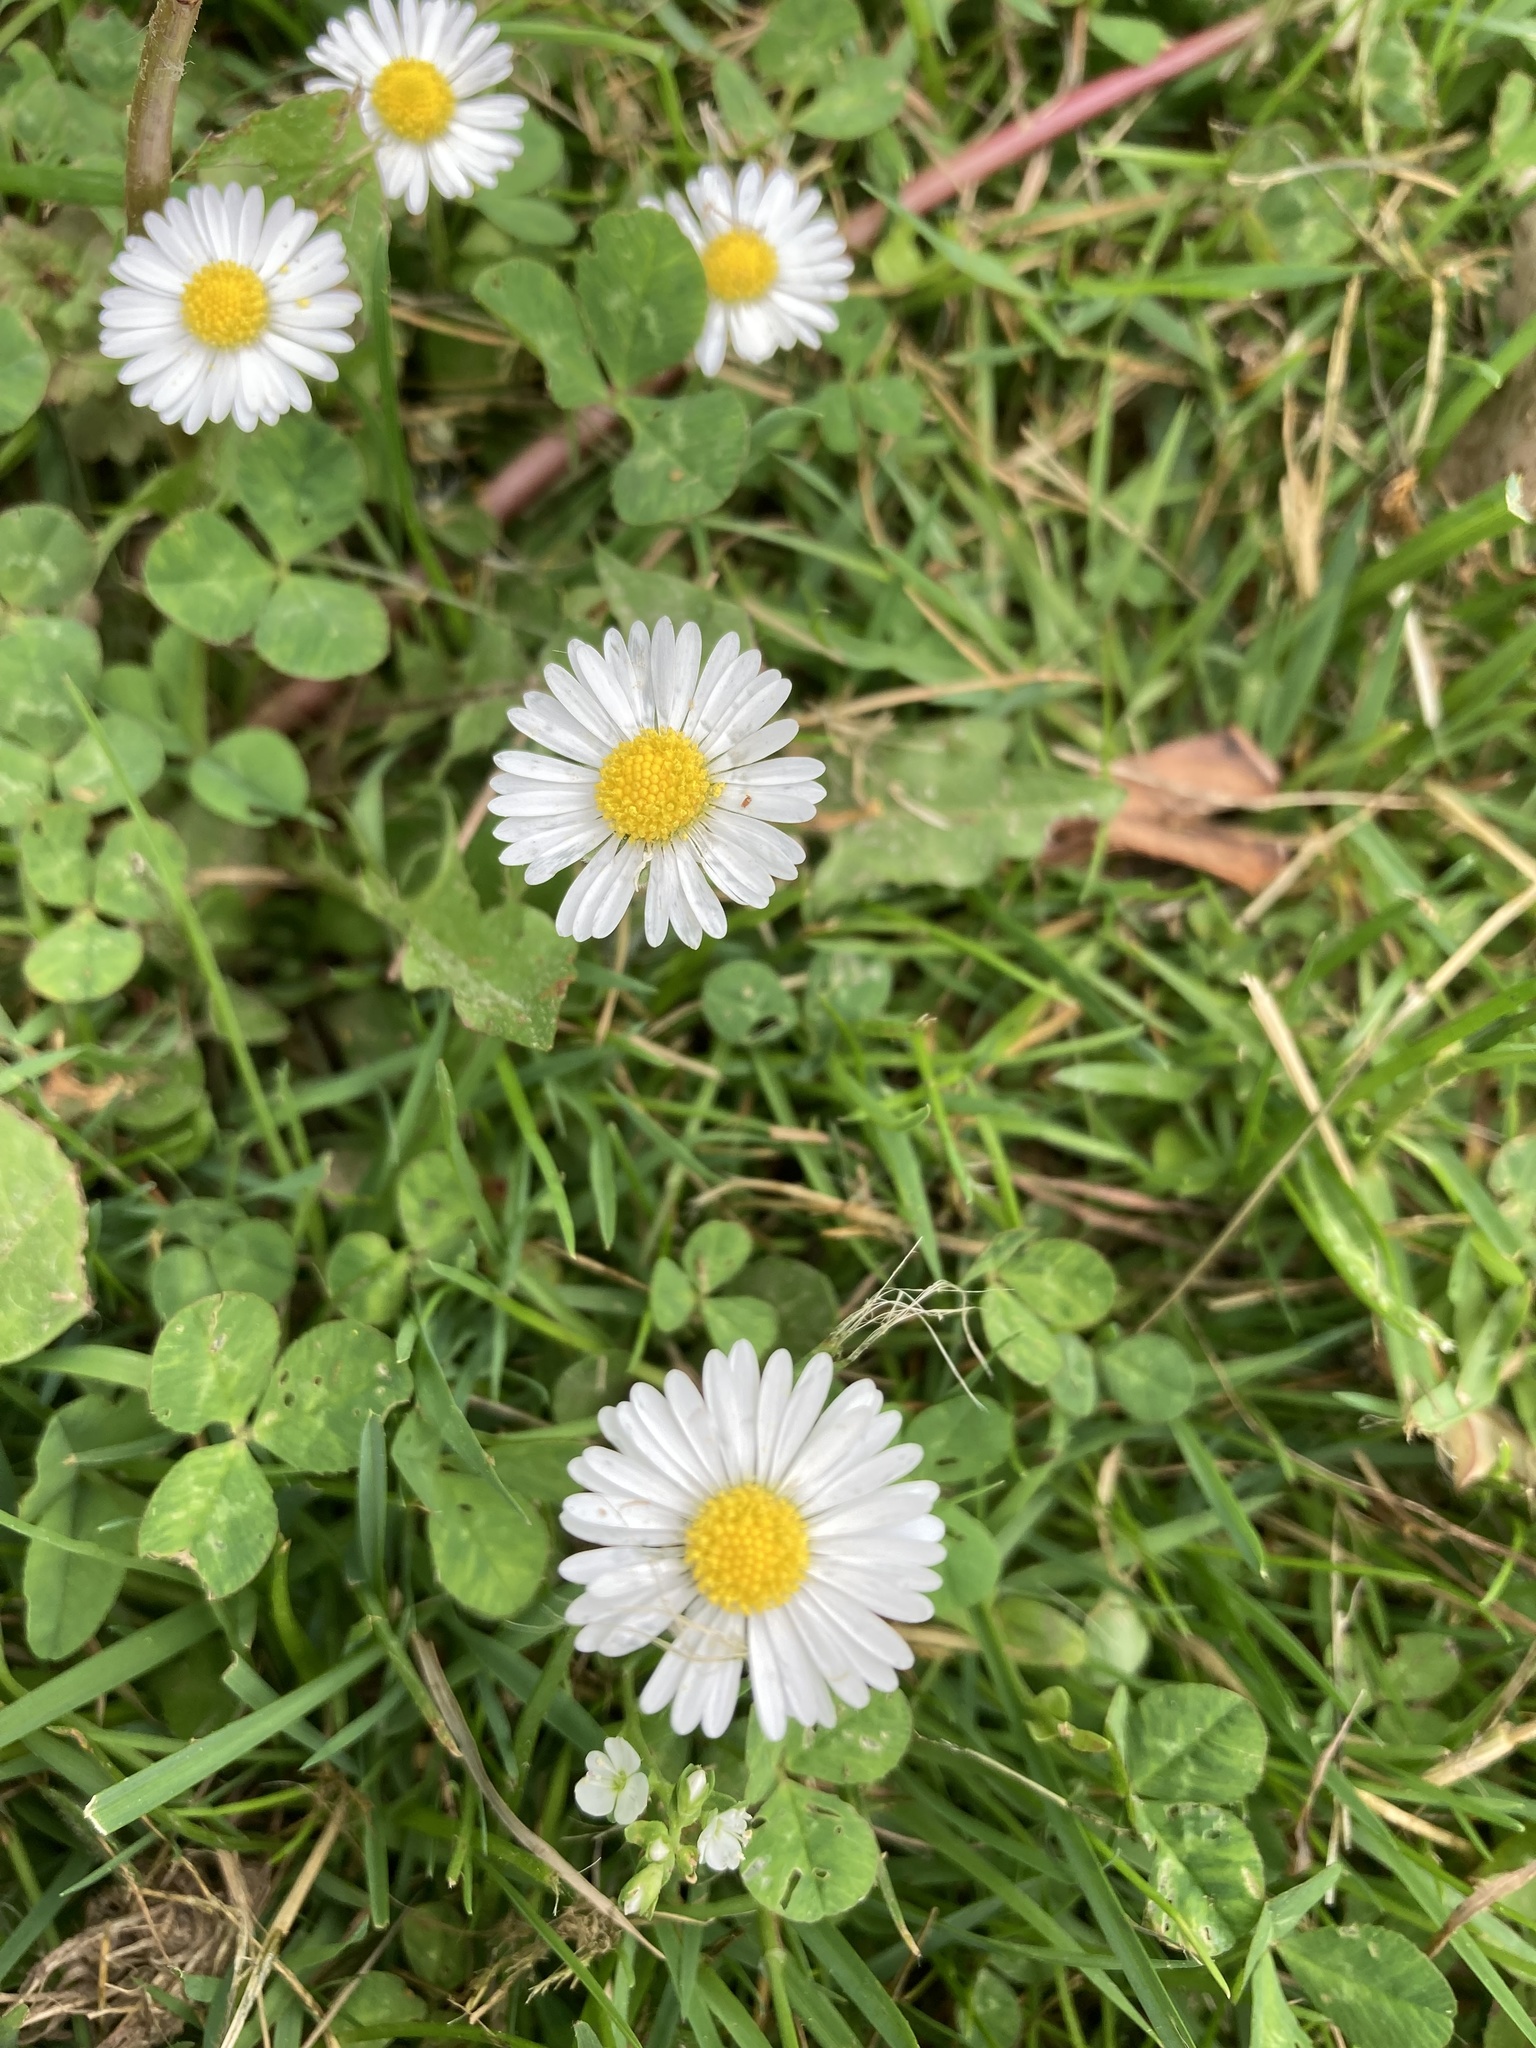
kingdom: Plantae
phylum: Tracheophyta
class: Magnoliopsida
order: Asterales
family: Asteraceae
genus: Bellis
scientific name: Bellis perennis
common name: Lawndaisy
